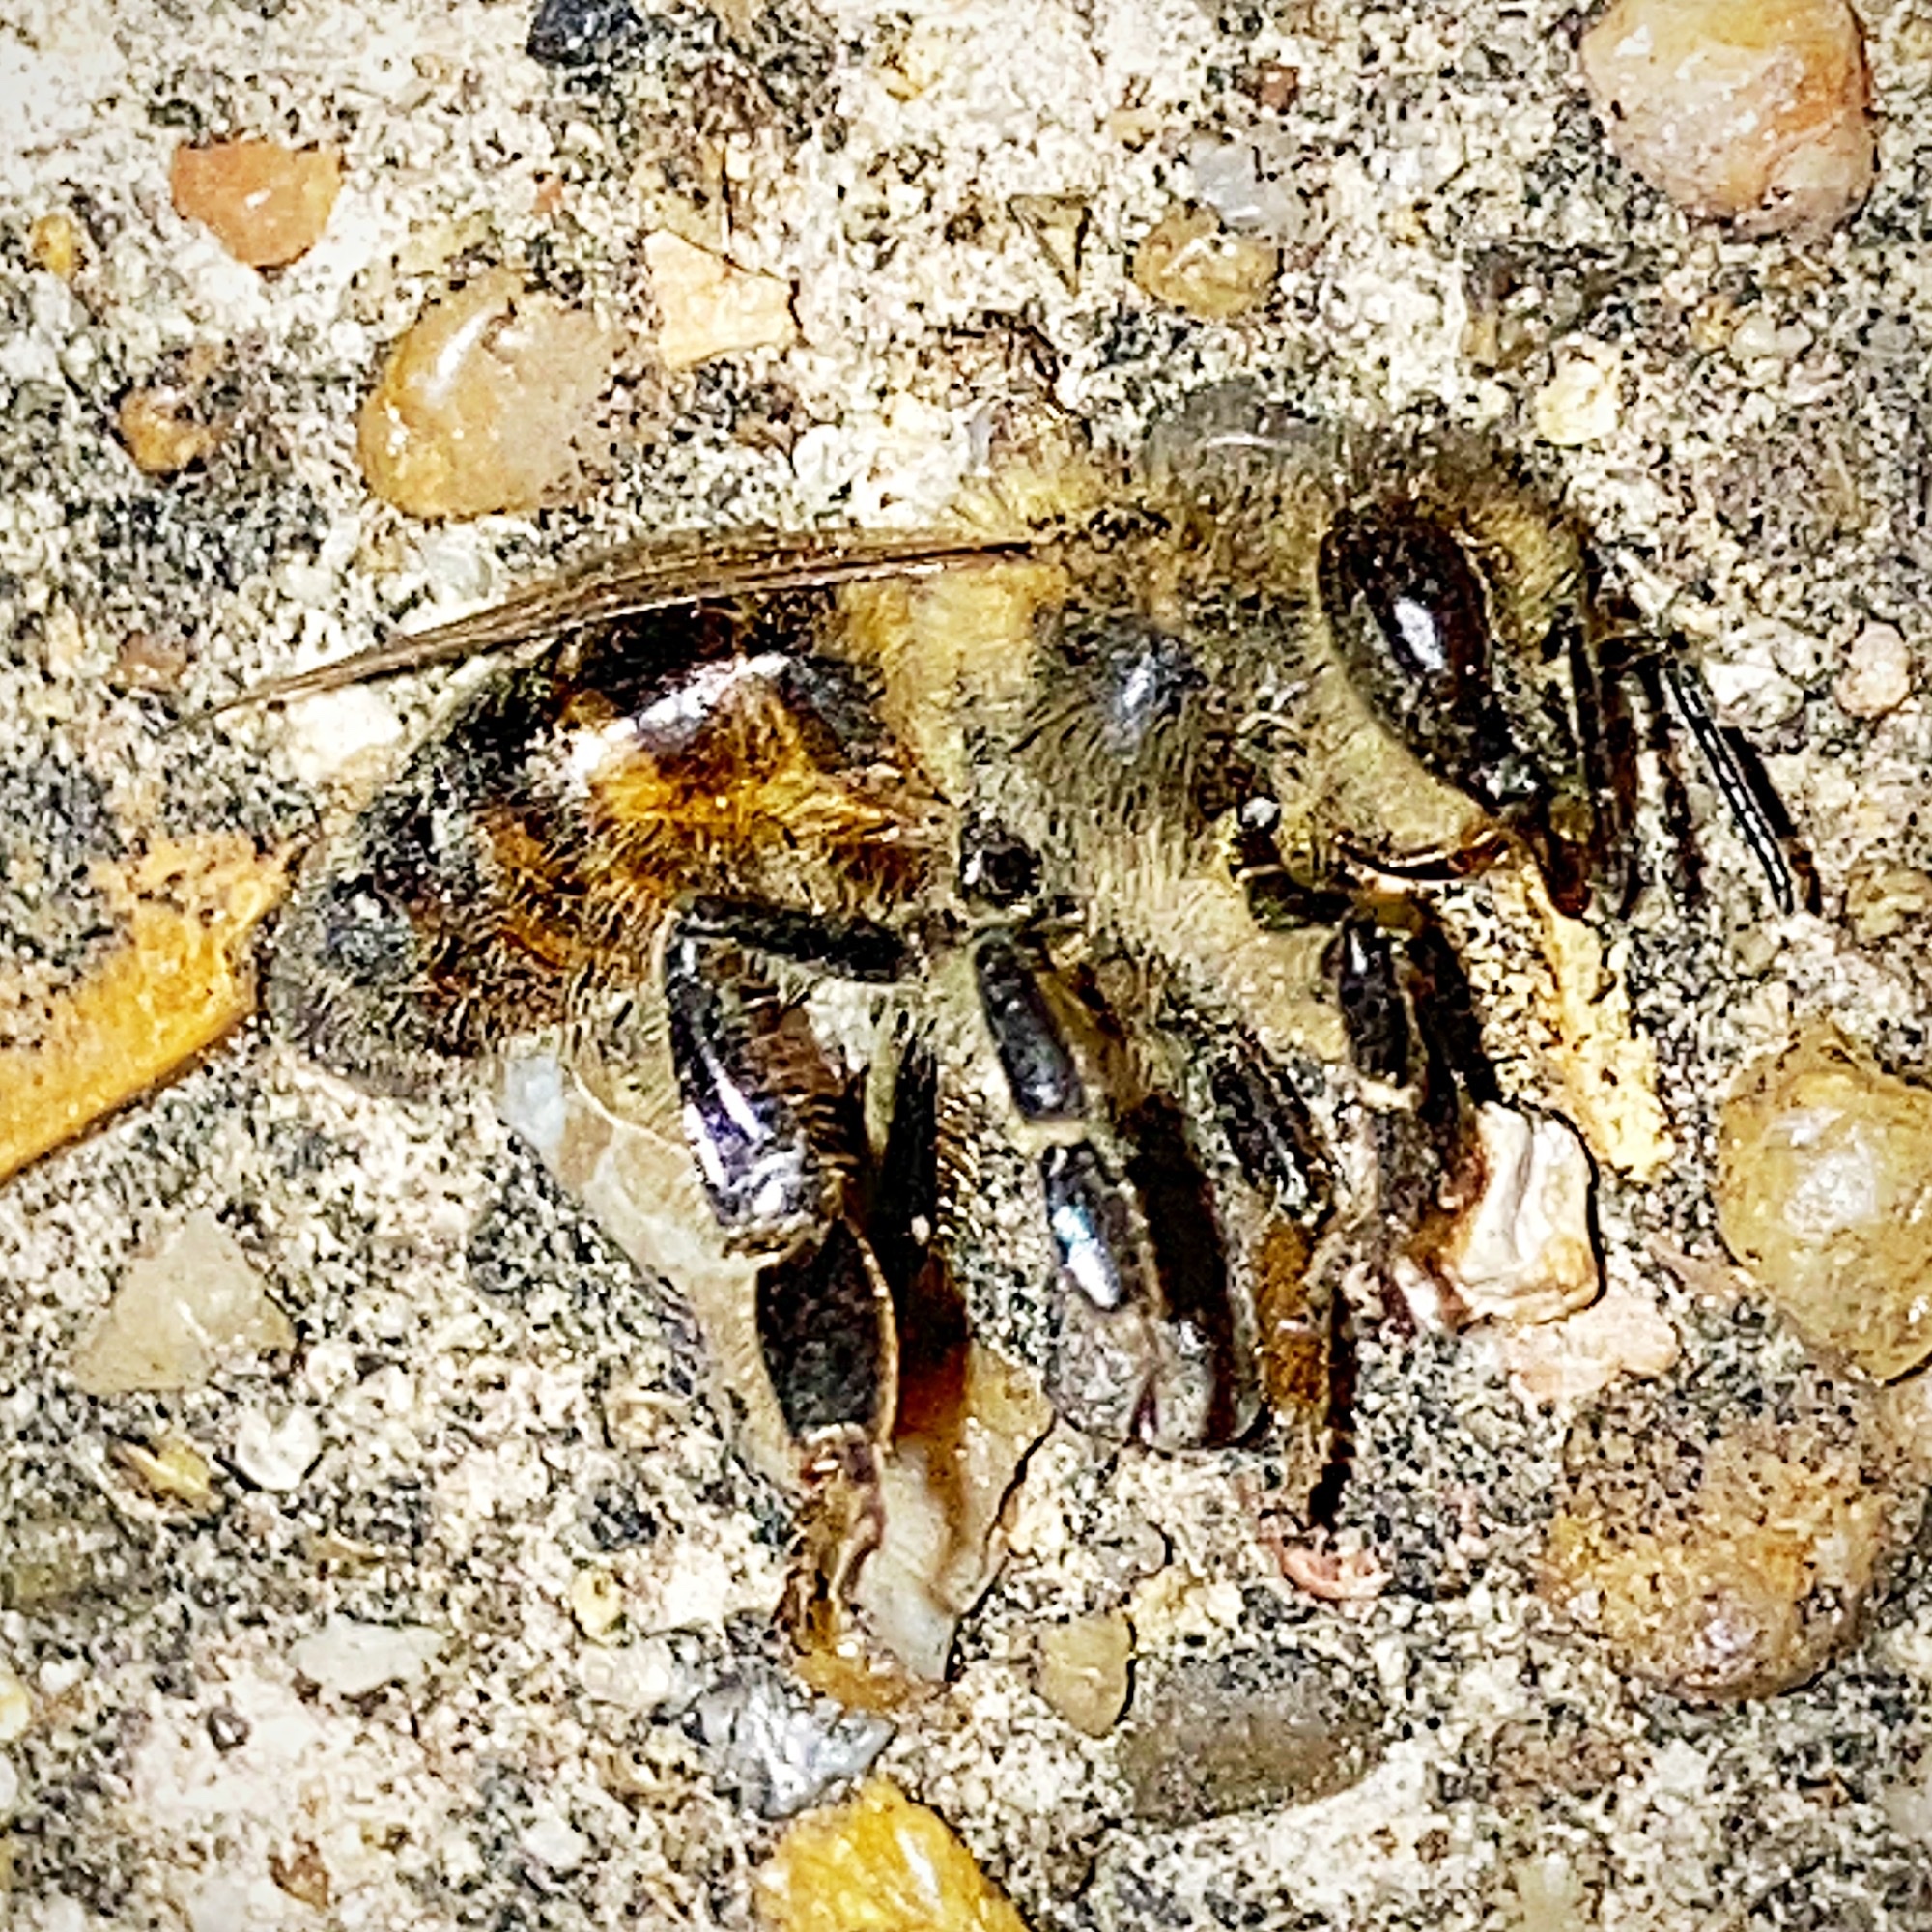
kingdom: Animalia
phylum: Arthropoda
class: Insecta
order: Hymenoptera
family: Apidae
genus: Apis
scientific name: Apis mellifera
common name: Honey bee
